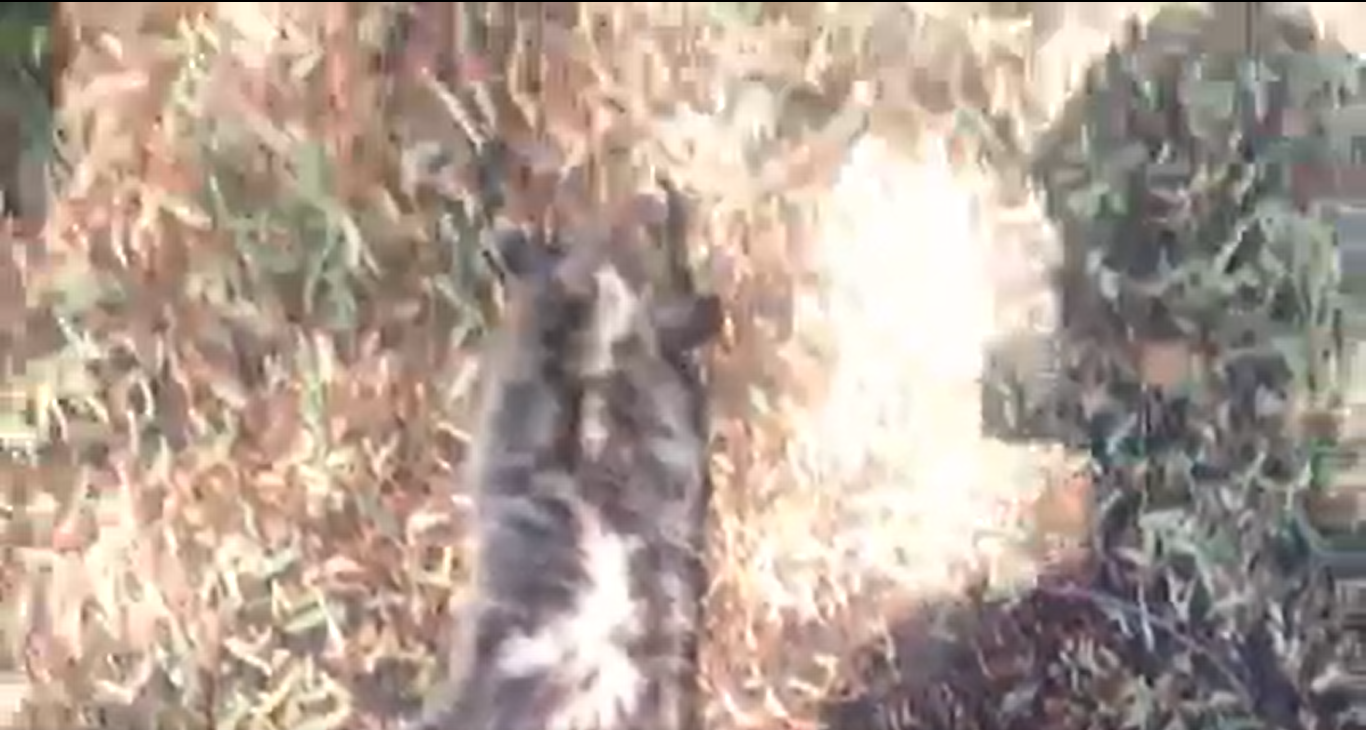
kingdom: Animalia
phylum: Chordata
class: Mammalia
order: Didelphimorphia
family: Didelphidae
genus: Didelphis
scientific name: Didelphis virginiana
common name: Virginia opossum
